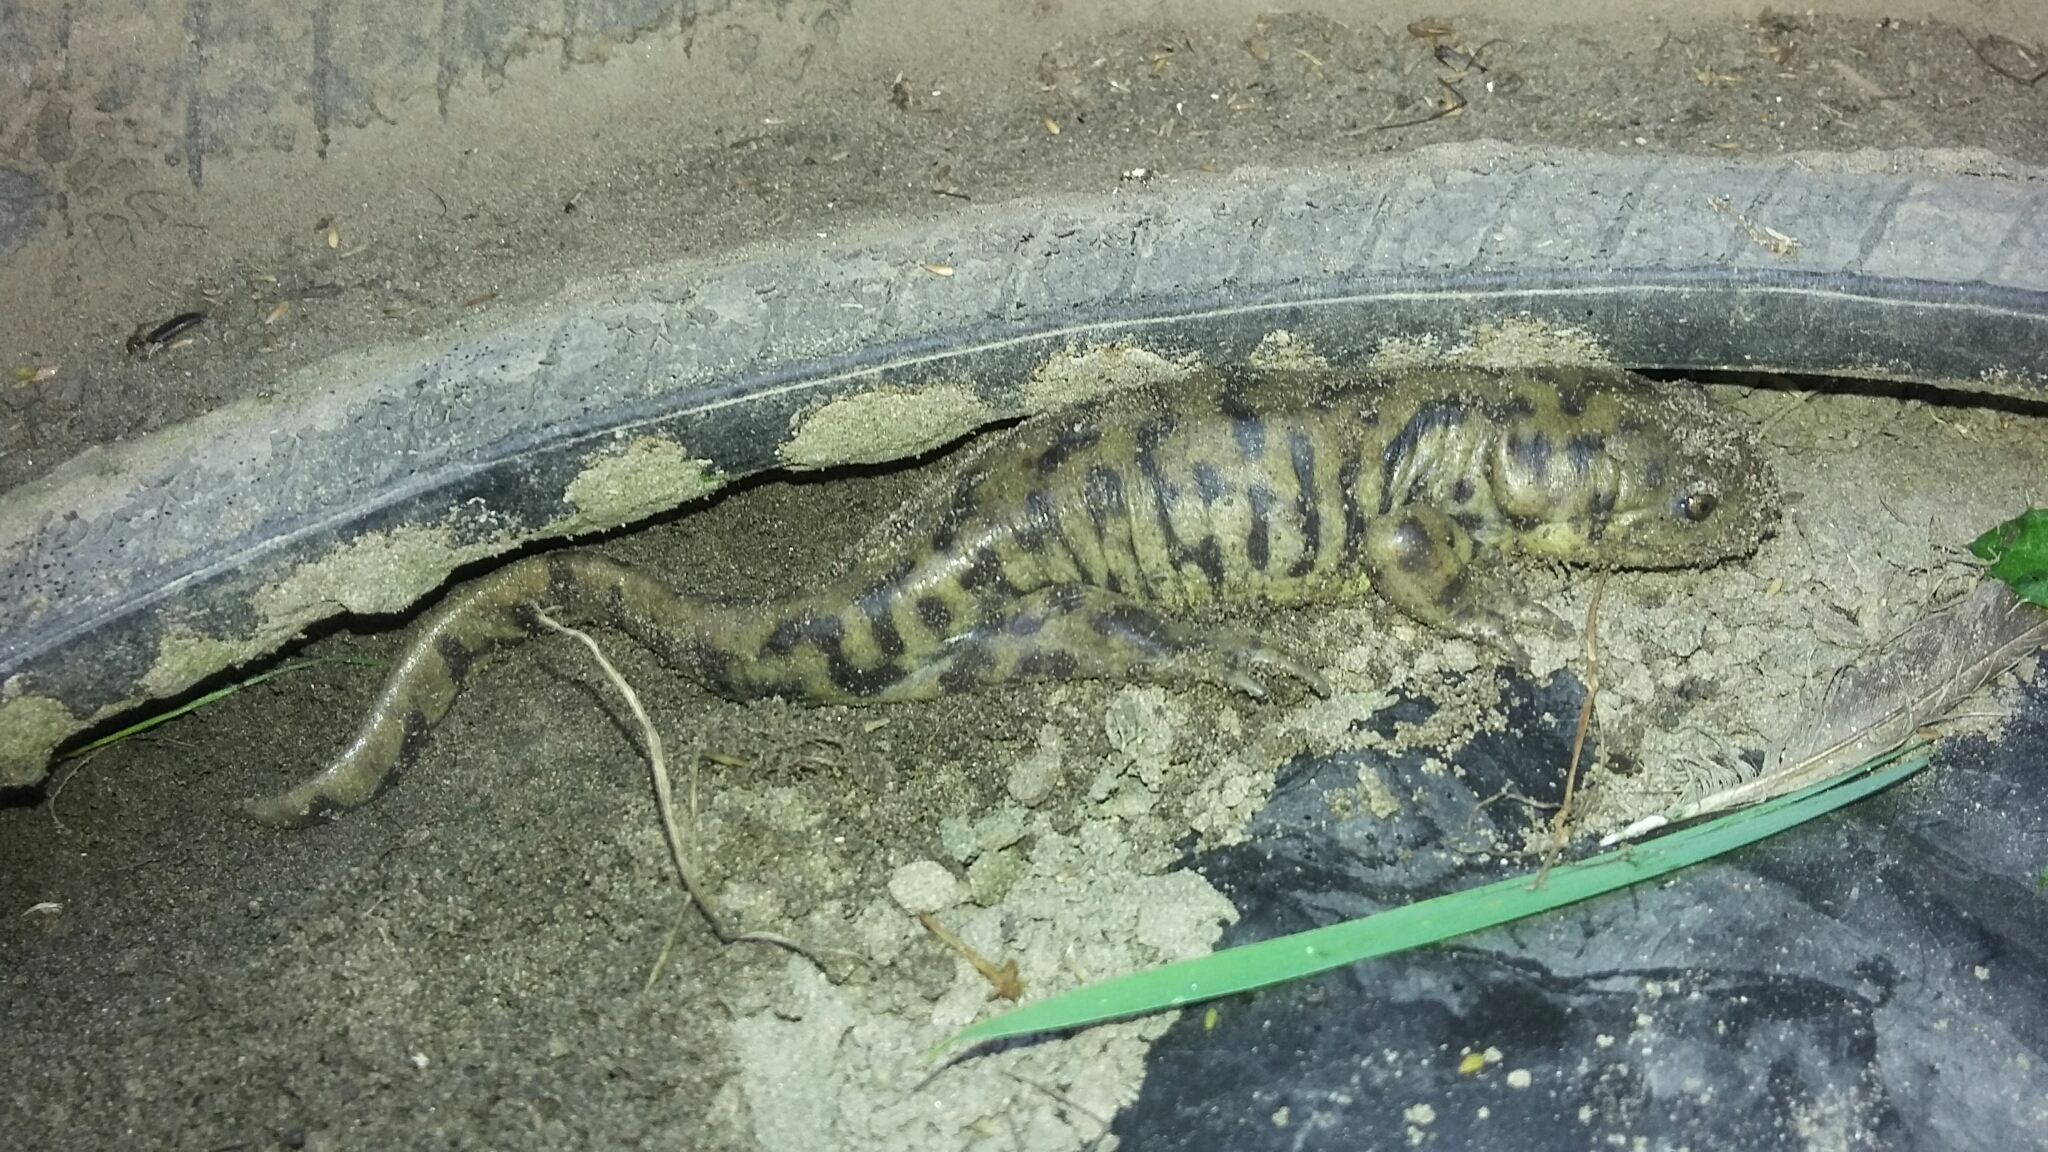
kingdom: Animalia
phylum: Chordata
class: Amphibia
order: Caudata
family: Ambystomatidae
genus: Ambystoma
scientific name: Ambystoma mavortium
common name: Western tiger salamander
